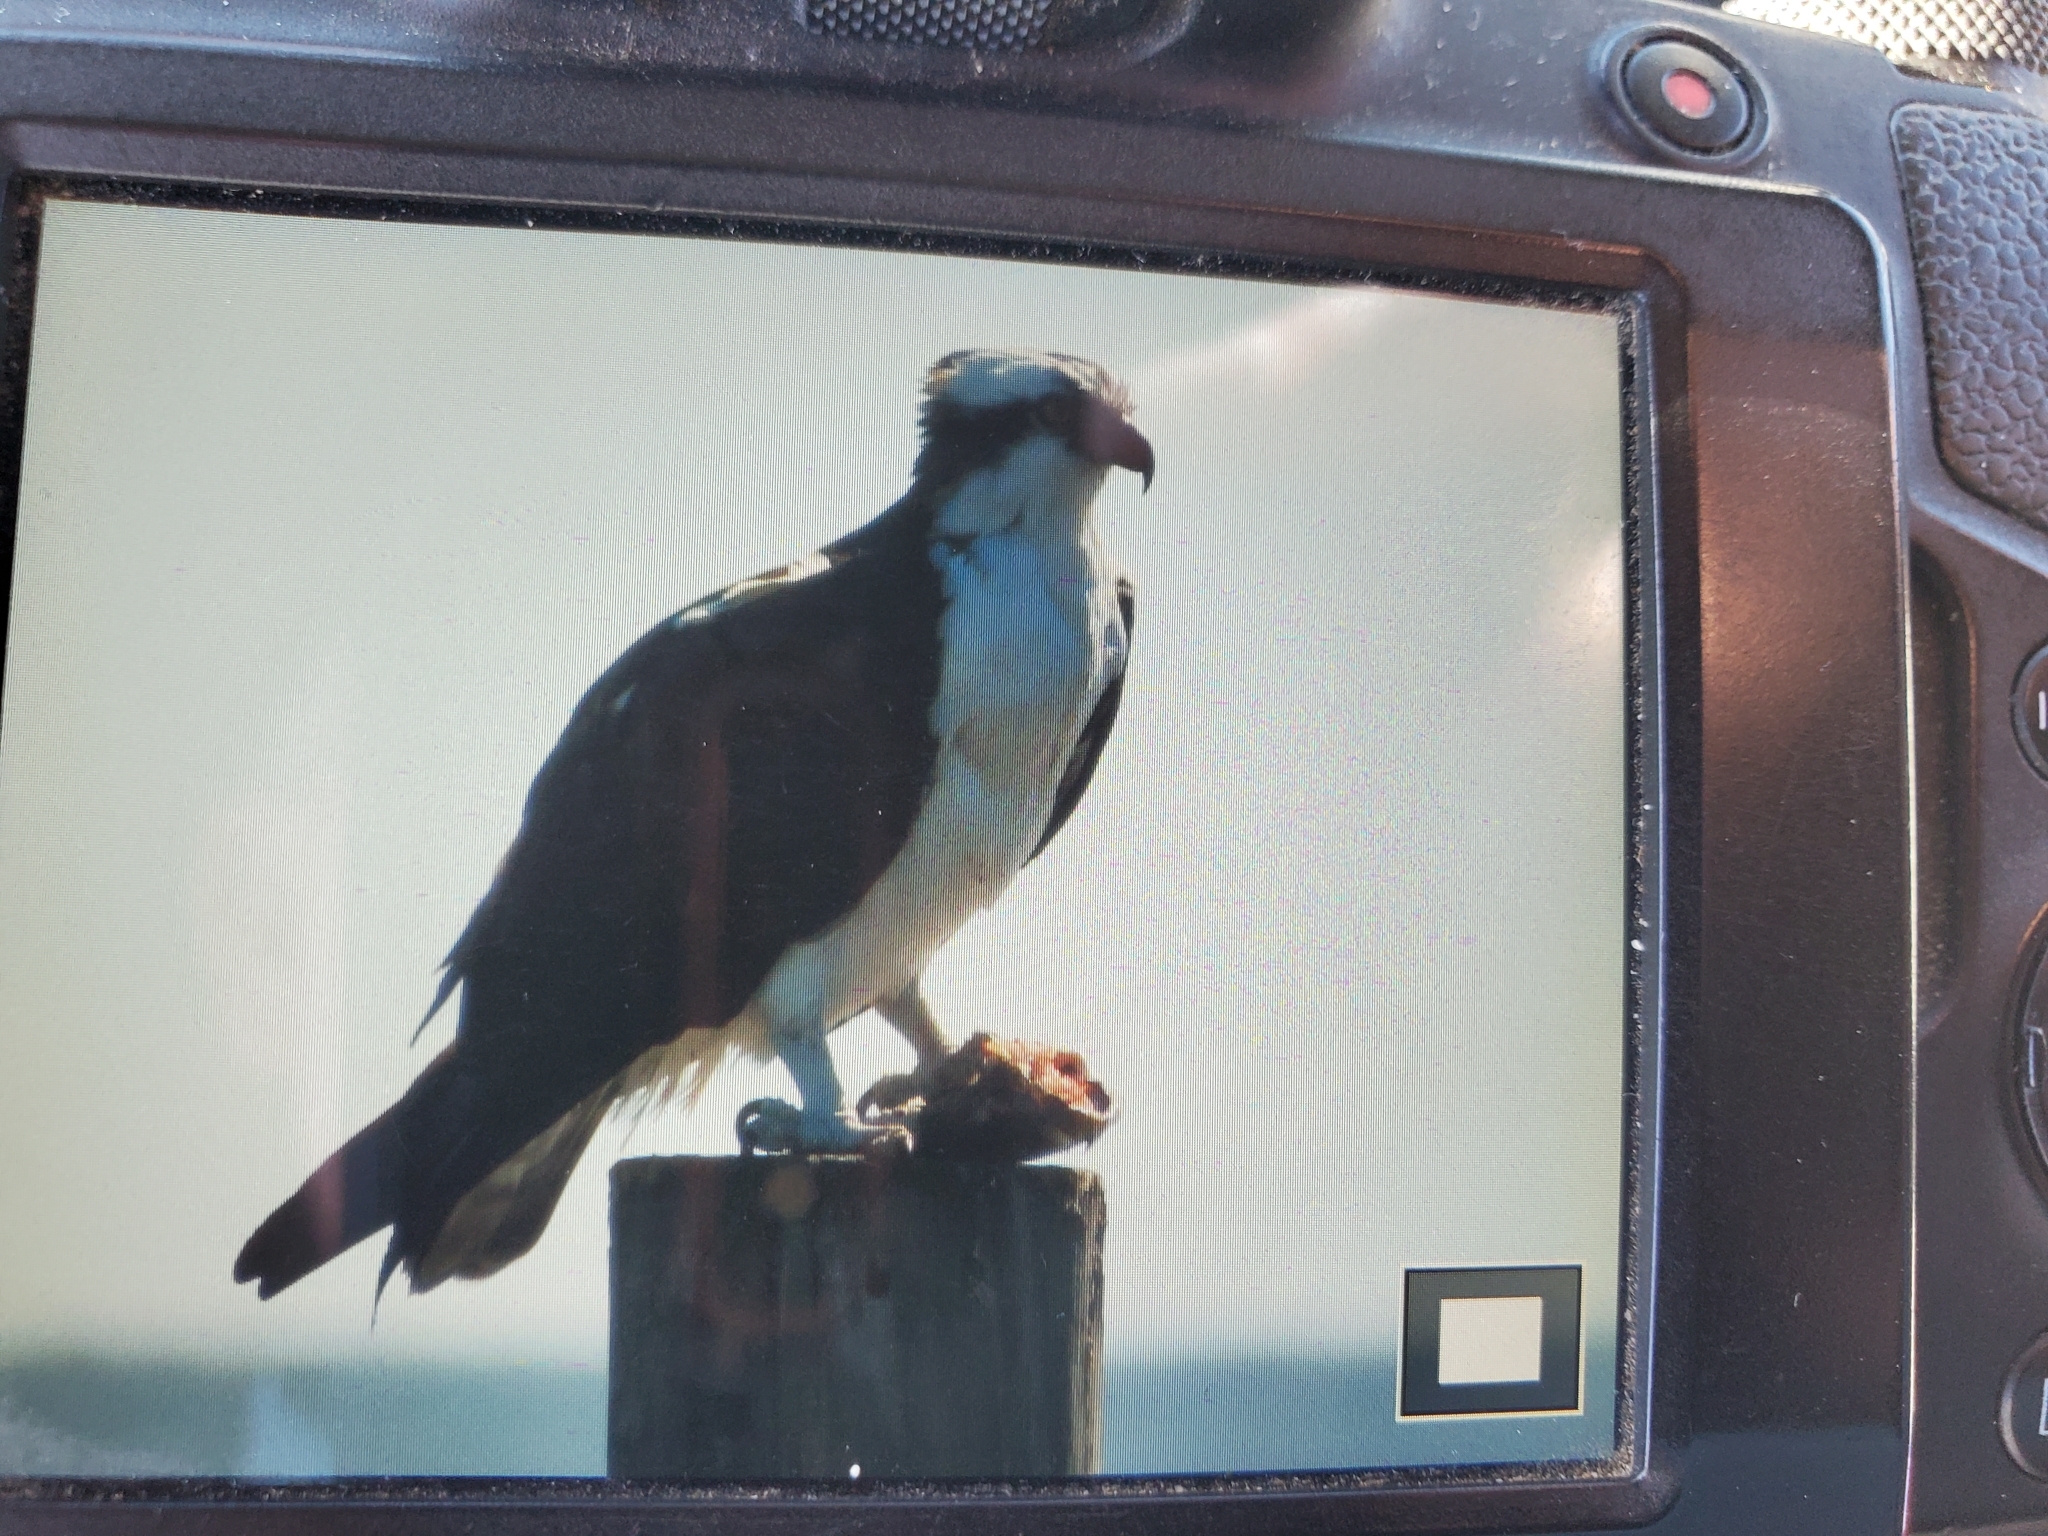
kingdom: Animalia
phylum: Chordata
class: Aves
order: Accipitriformes
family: Pandionidae
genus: Pandion
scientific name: Pandion haliaetus
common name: Osprey
